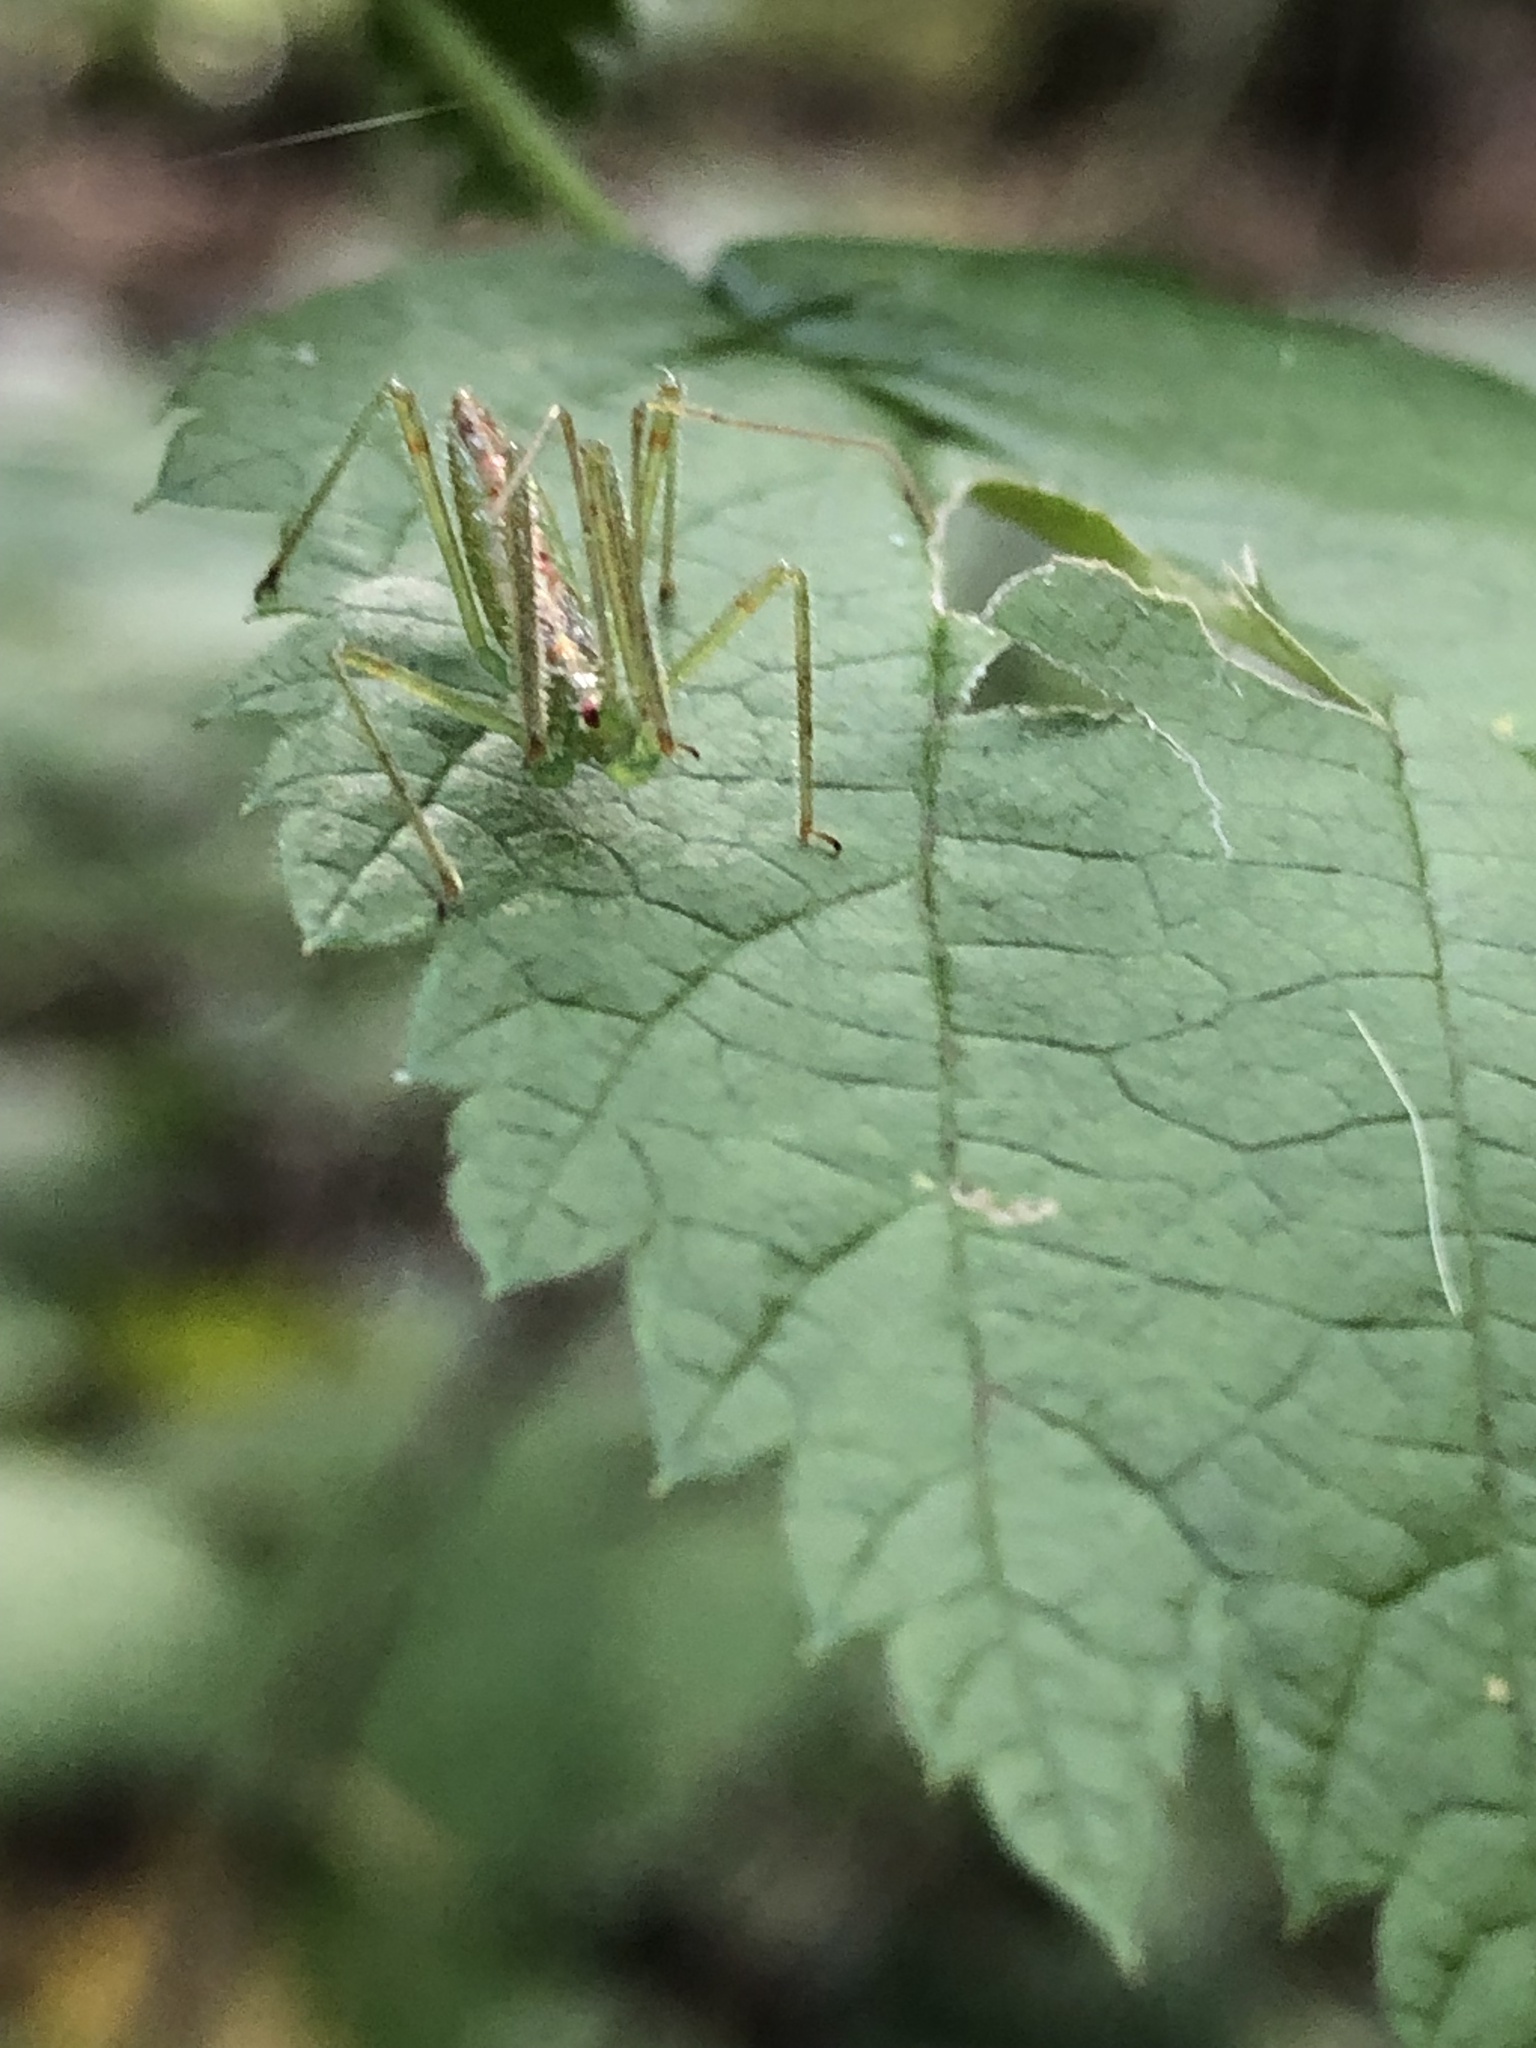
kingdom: Animalia
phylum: Arthropoda
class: Insecta
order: Hemiptera
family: Reduviidae
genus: Zelus
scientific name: Zelus luridus
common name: Pale green assassin bug
